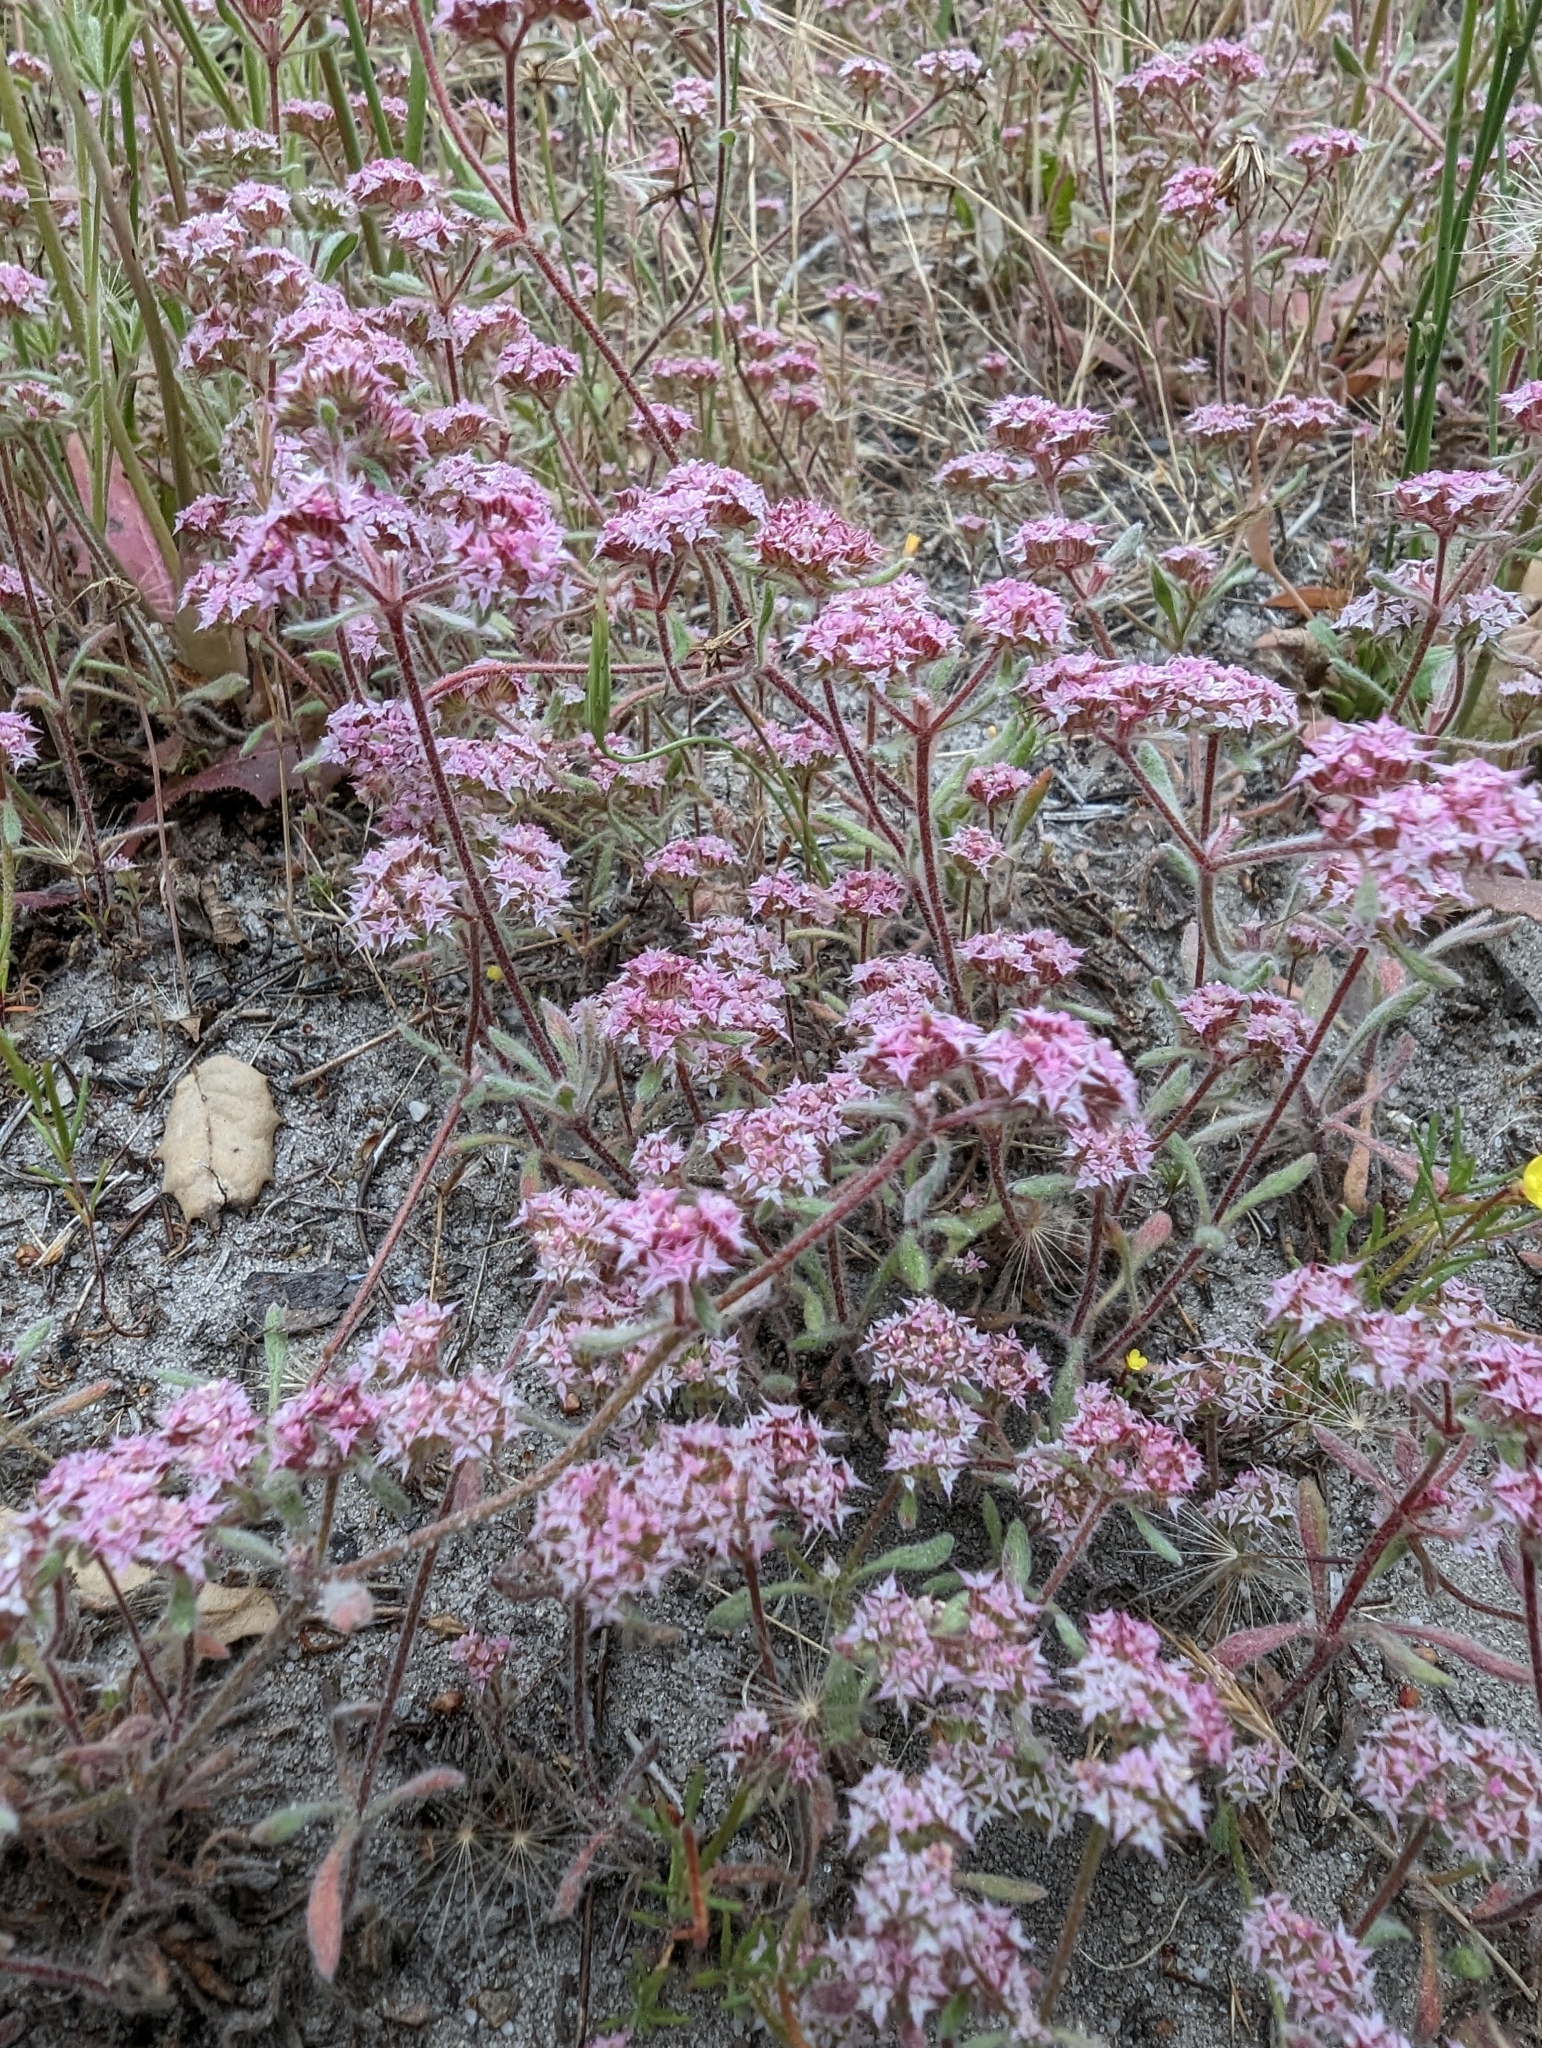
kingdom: Plantae
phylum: Tracheophyta
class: Magnoliopsida
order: Caryophyllales
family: Polygonaceae
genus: Chorizanthe
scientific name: Chorizanthe pungens
